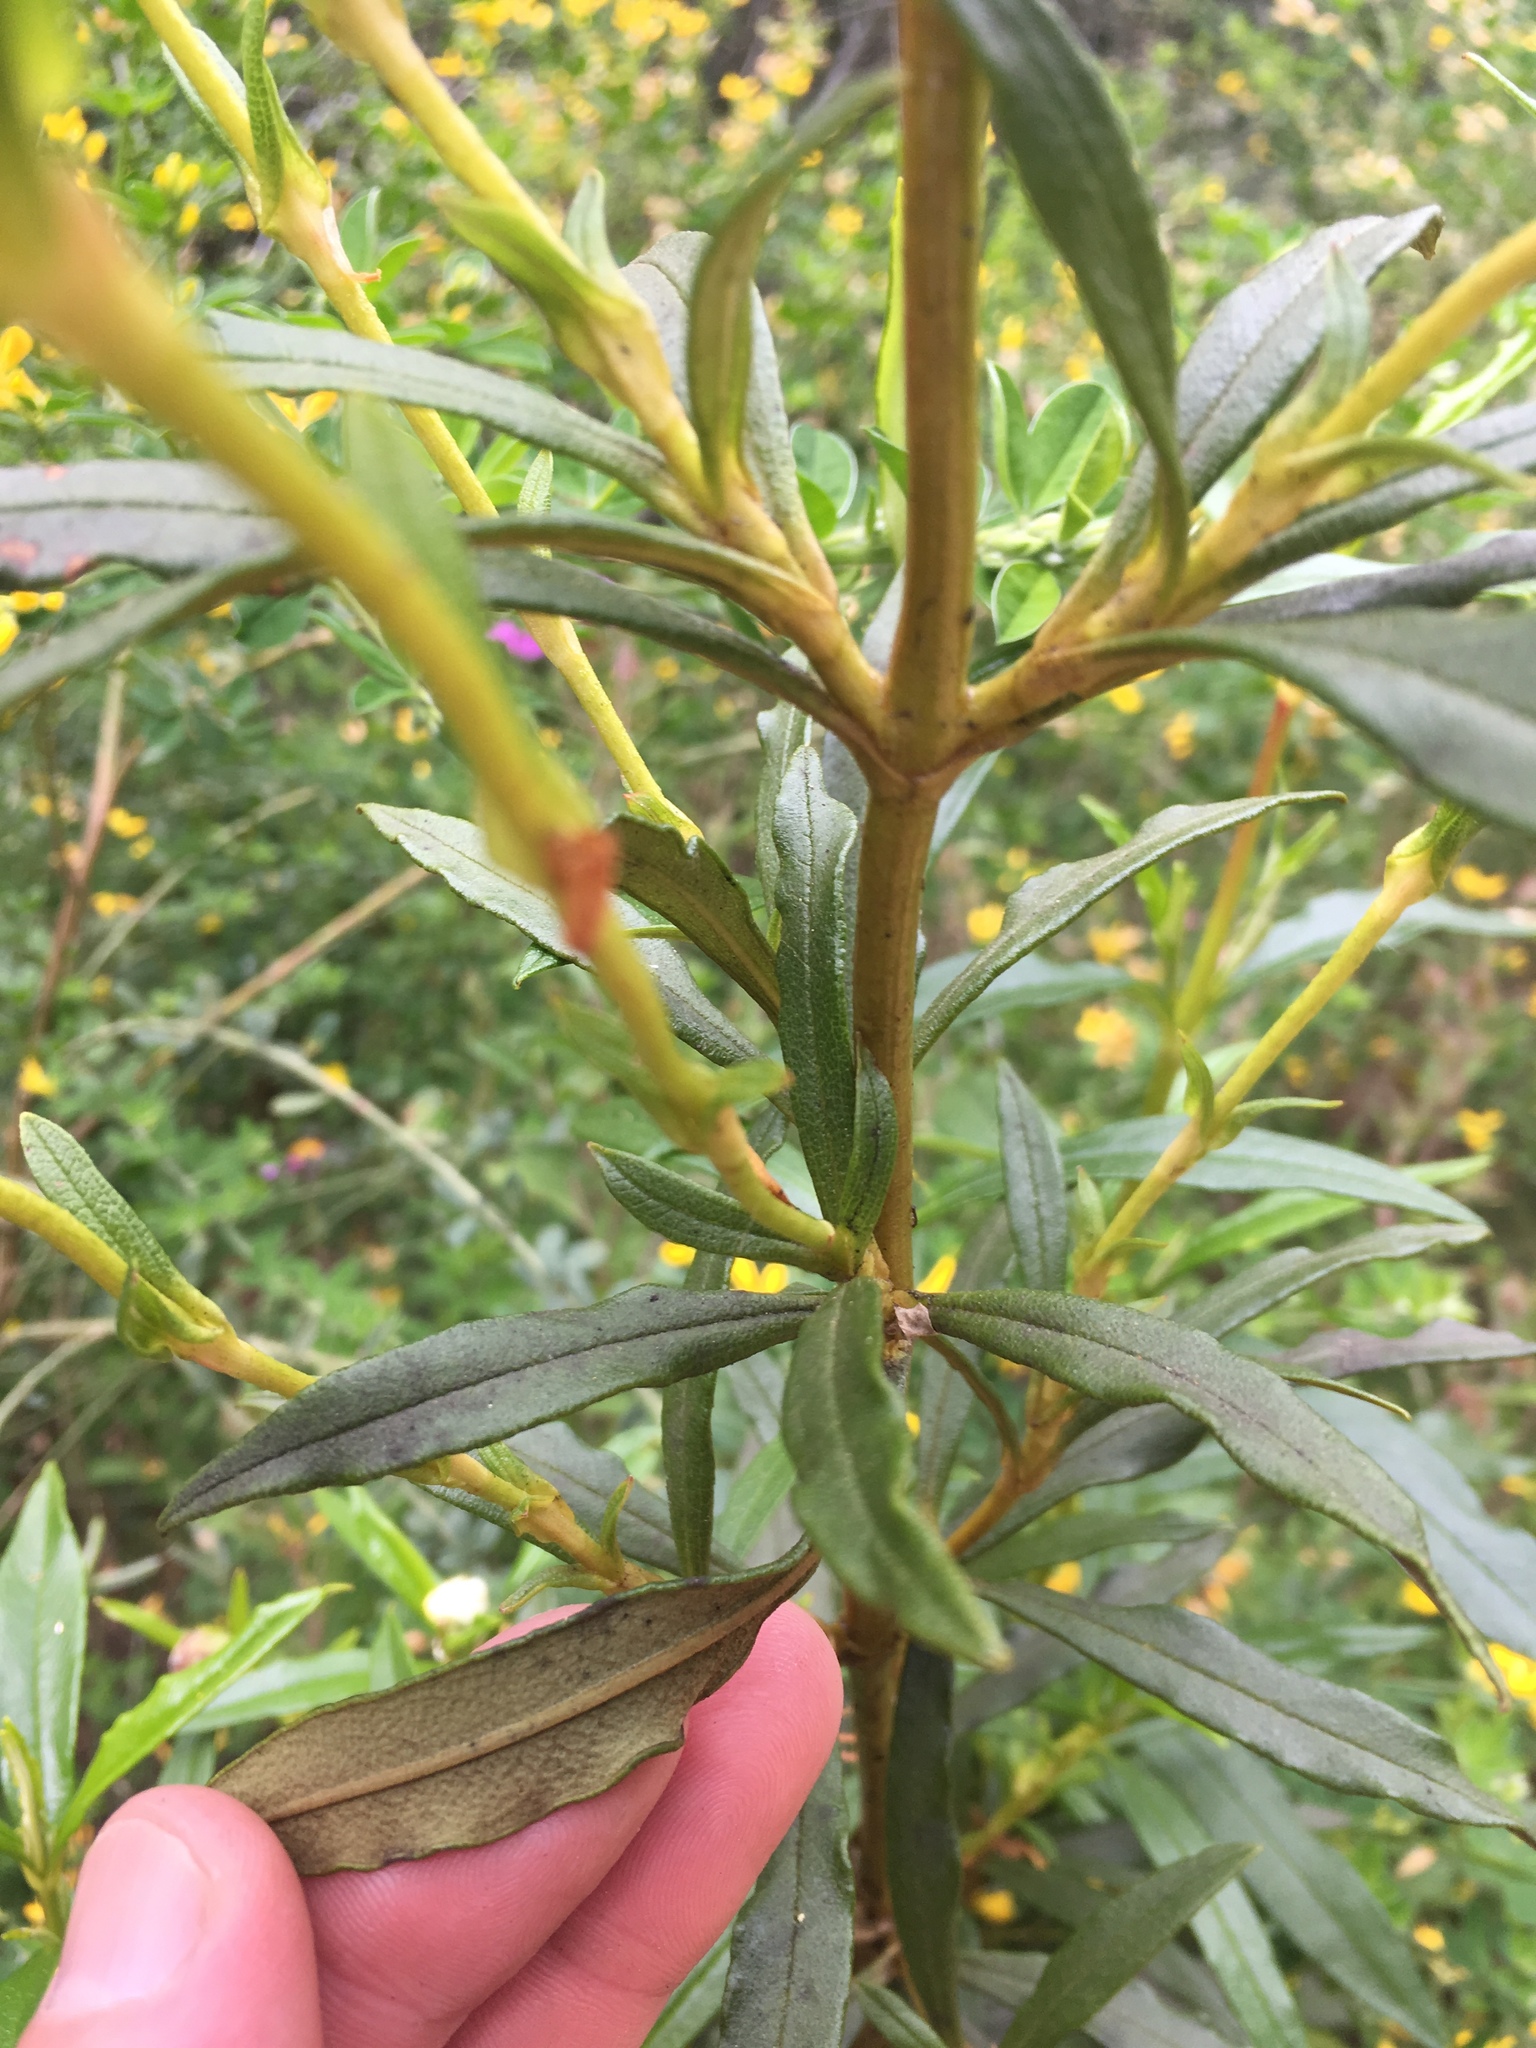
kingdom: Plantae
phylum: Tracheophyta
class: Magnoliopsida
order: Malvales
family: Cistaceae
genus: Cistus
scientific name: Cistus ladanifer
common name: Common gum cistus
